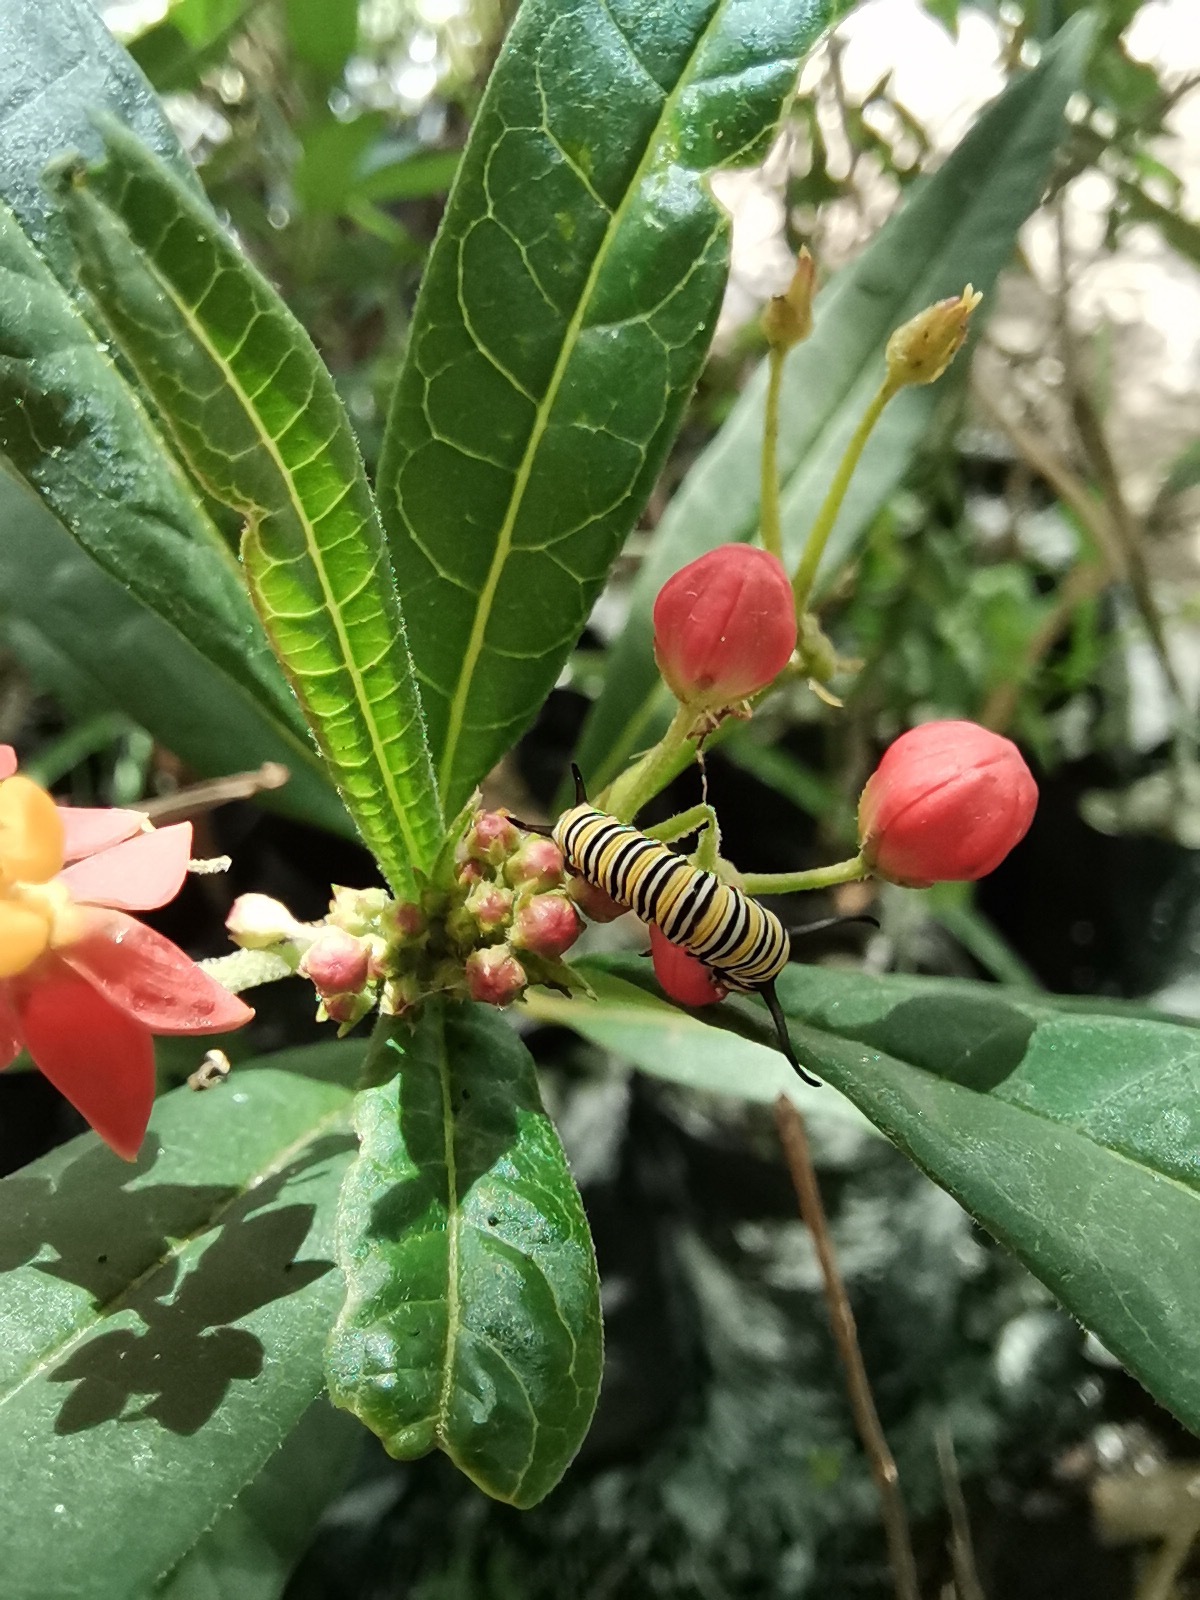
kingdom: Animalia
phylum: Arthropoda
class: Insecta
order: Lepidoptera
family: Nymphalidae
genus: Danaus
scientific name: Danaus plexippus
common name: Monarch
